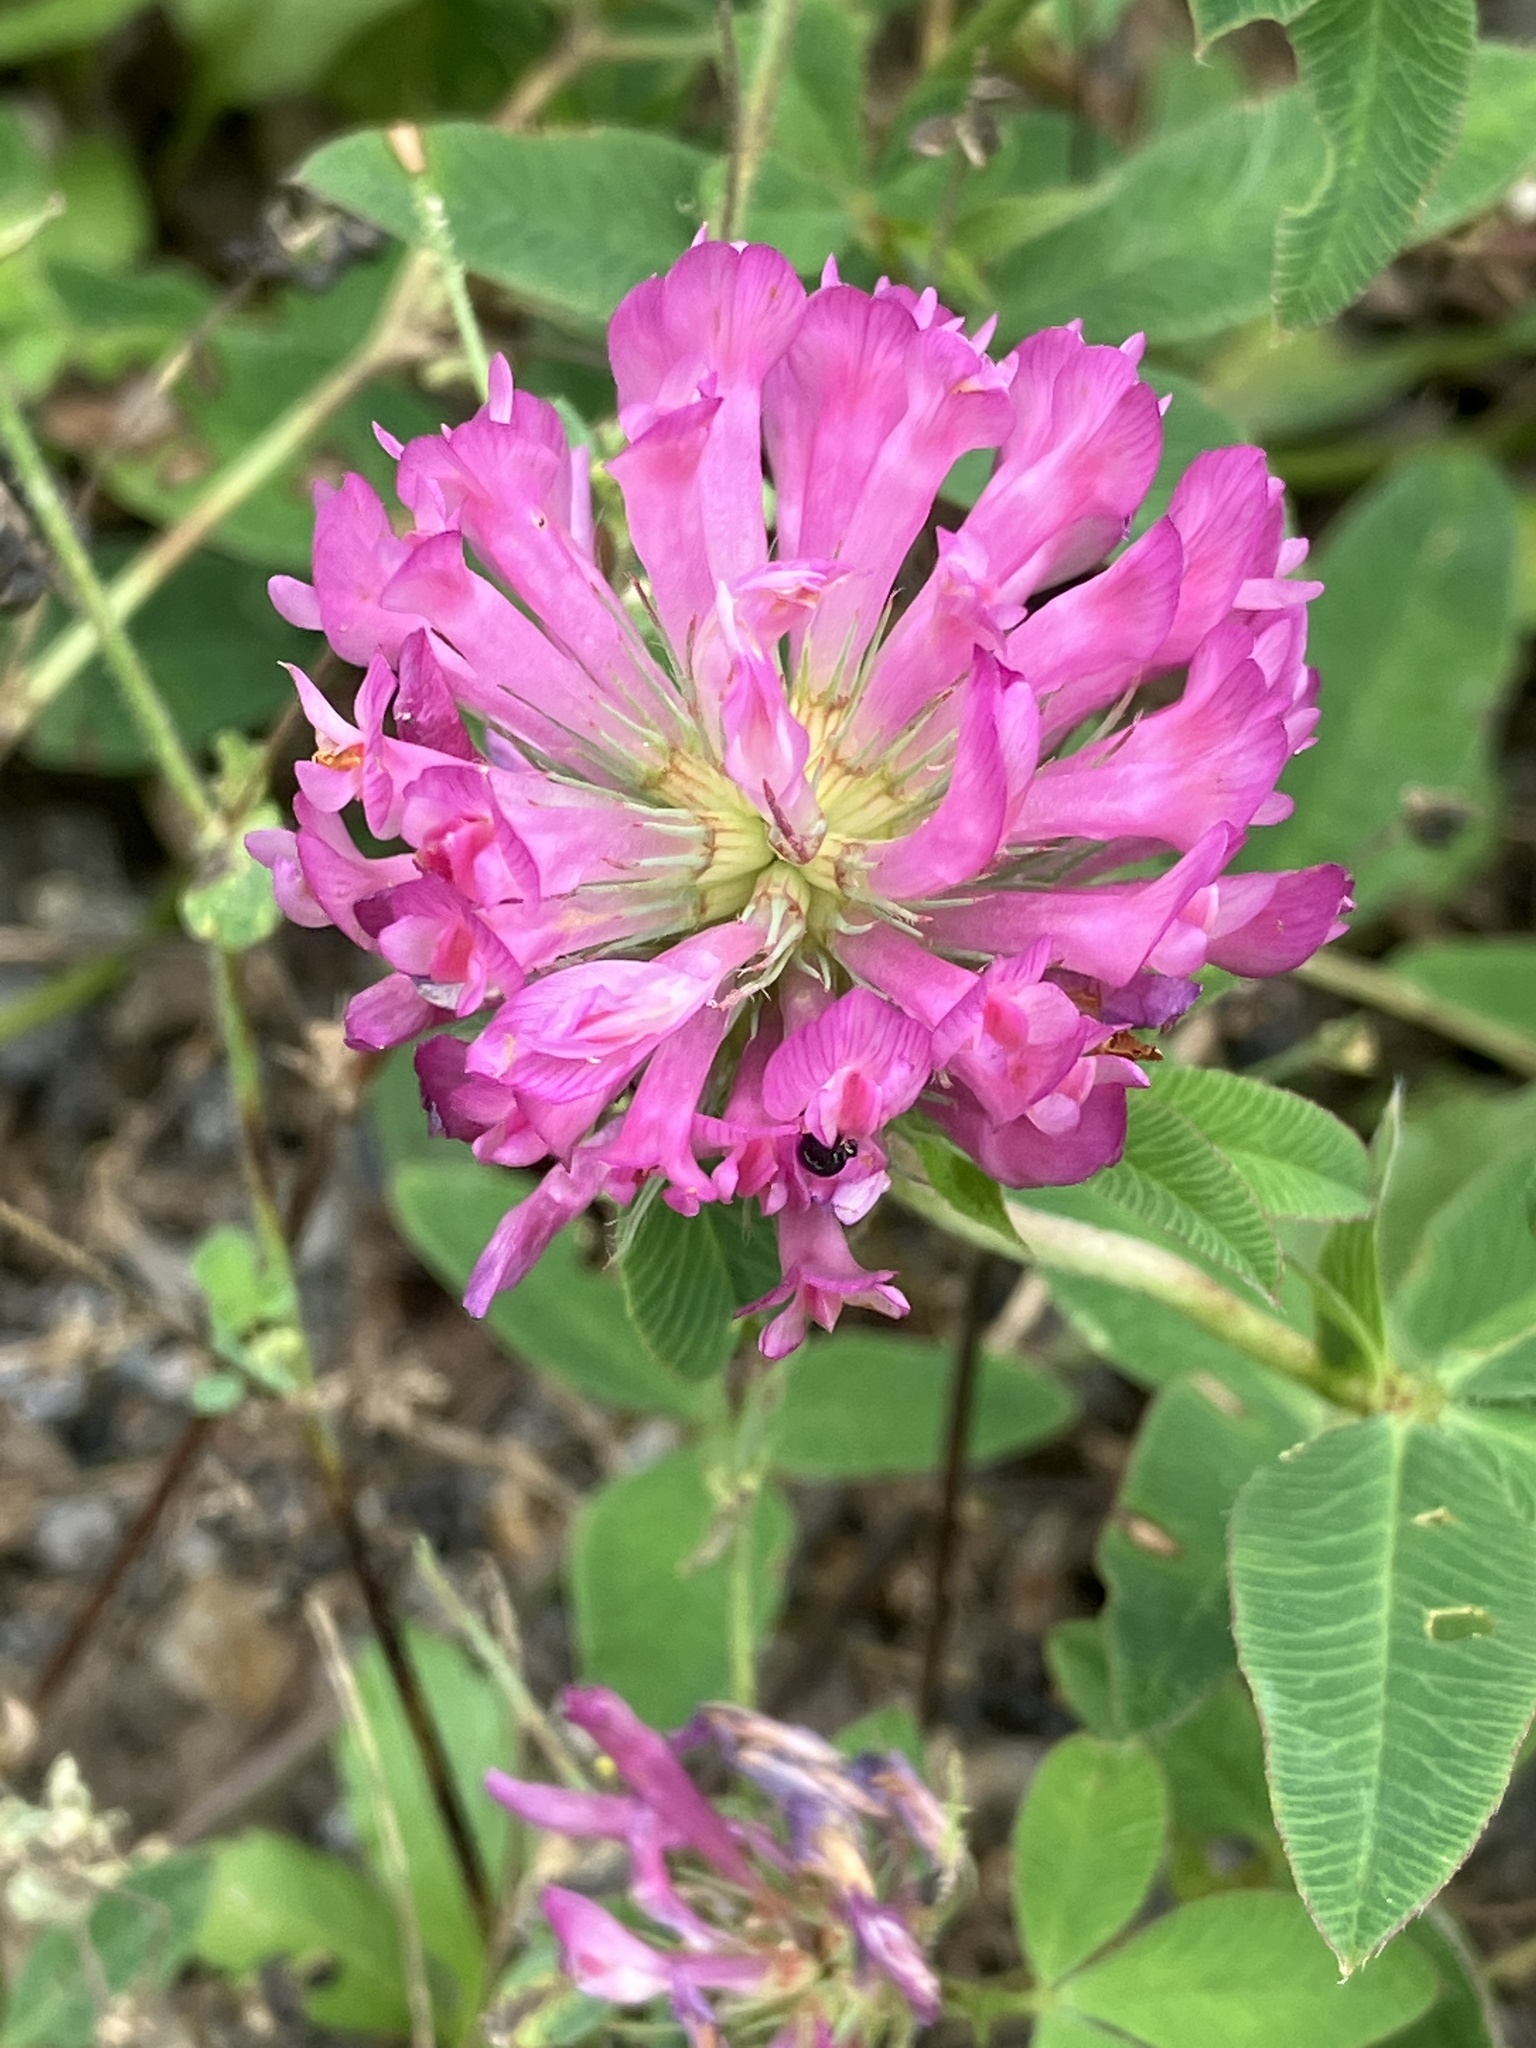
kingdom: Plantae
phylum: Tracheophyta
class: Magnoliopsida
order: Fabales
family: Fabaceae
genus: Trifolium
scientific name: Trifolium medium
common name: Zigzag clover
